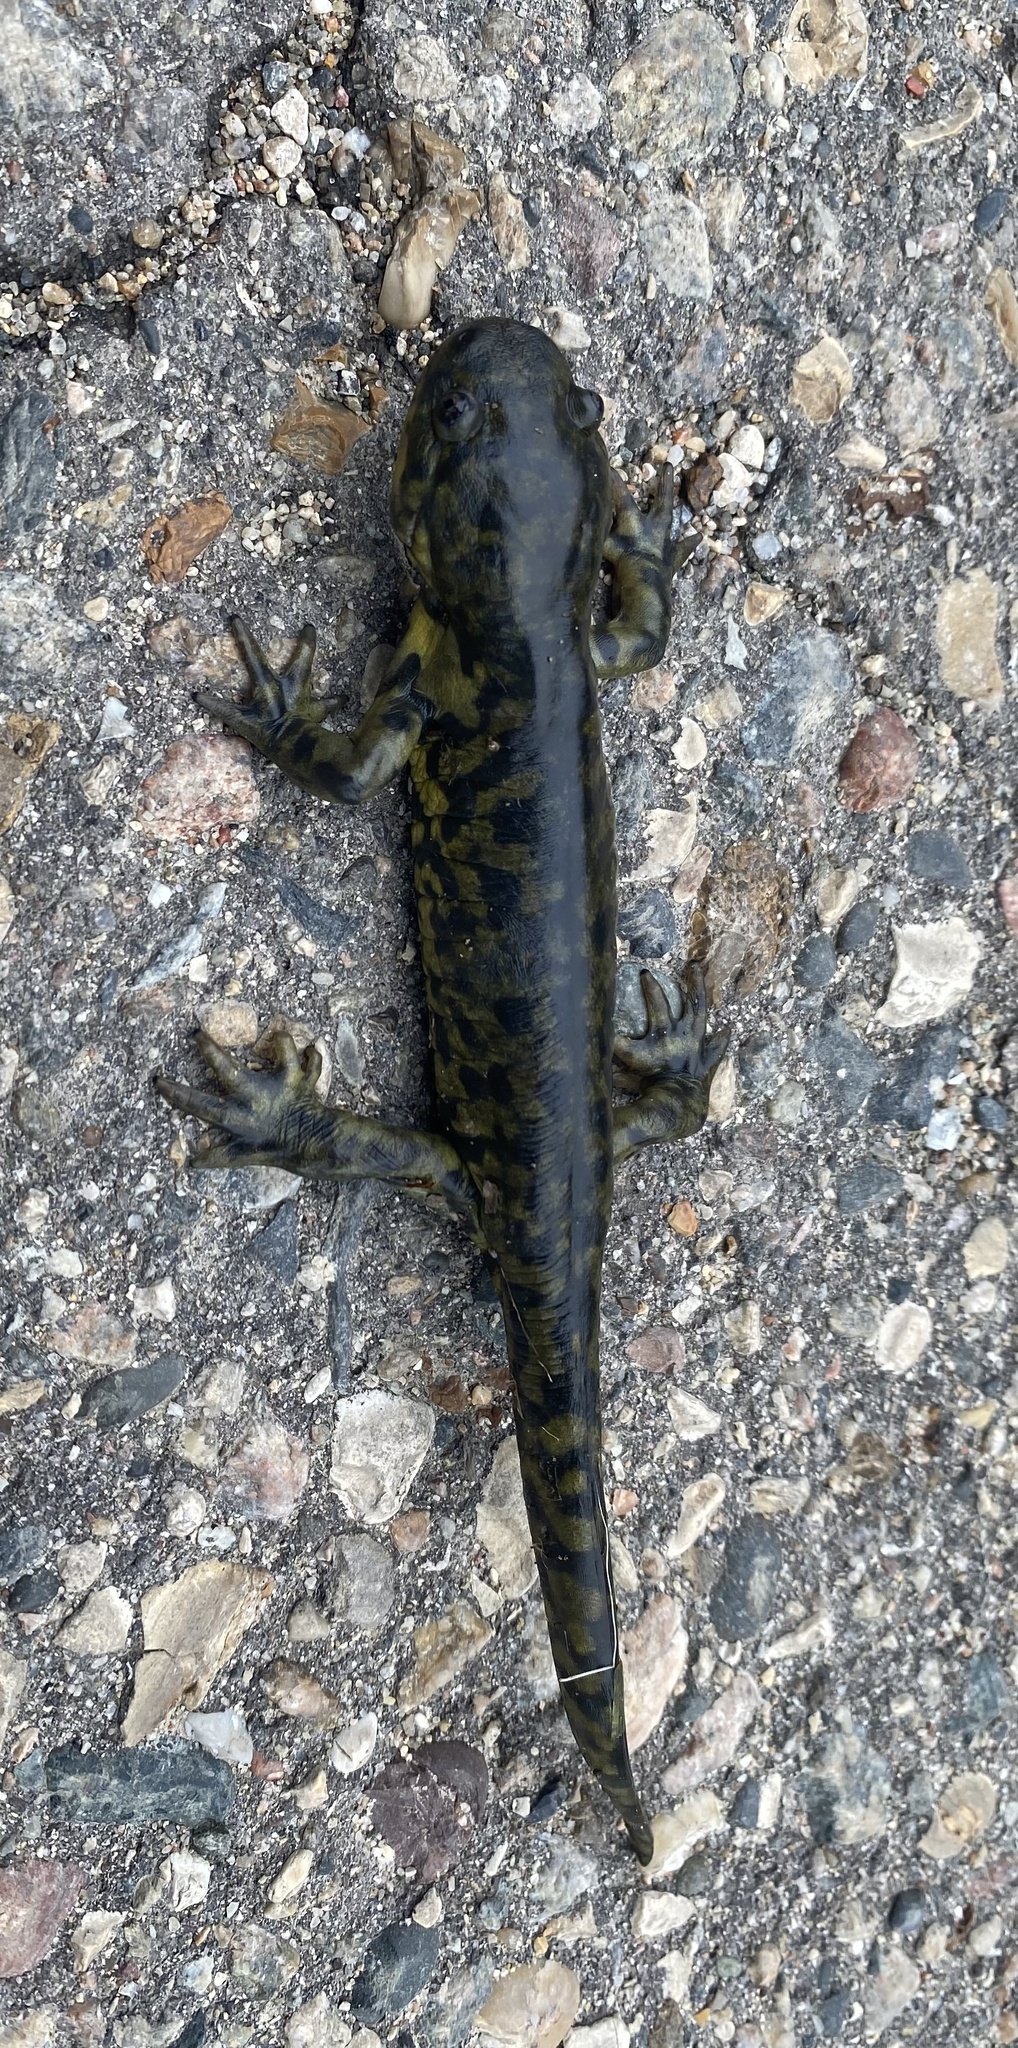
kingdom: Animalia
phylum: Chordata
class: Amphibia
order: Caudata
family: Ambystomatidae
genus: Ambystoma
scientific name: Ambystoma mavortium
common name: Western tiger salamander
